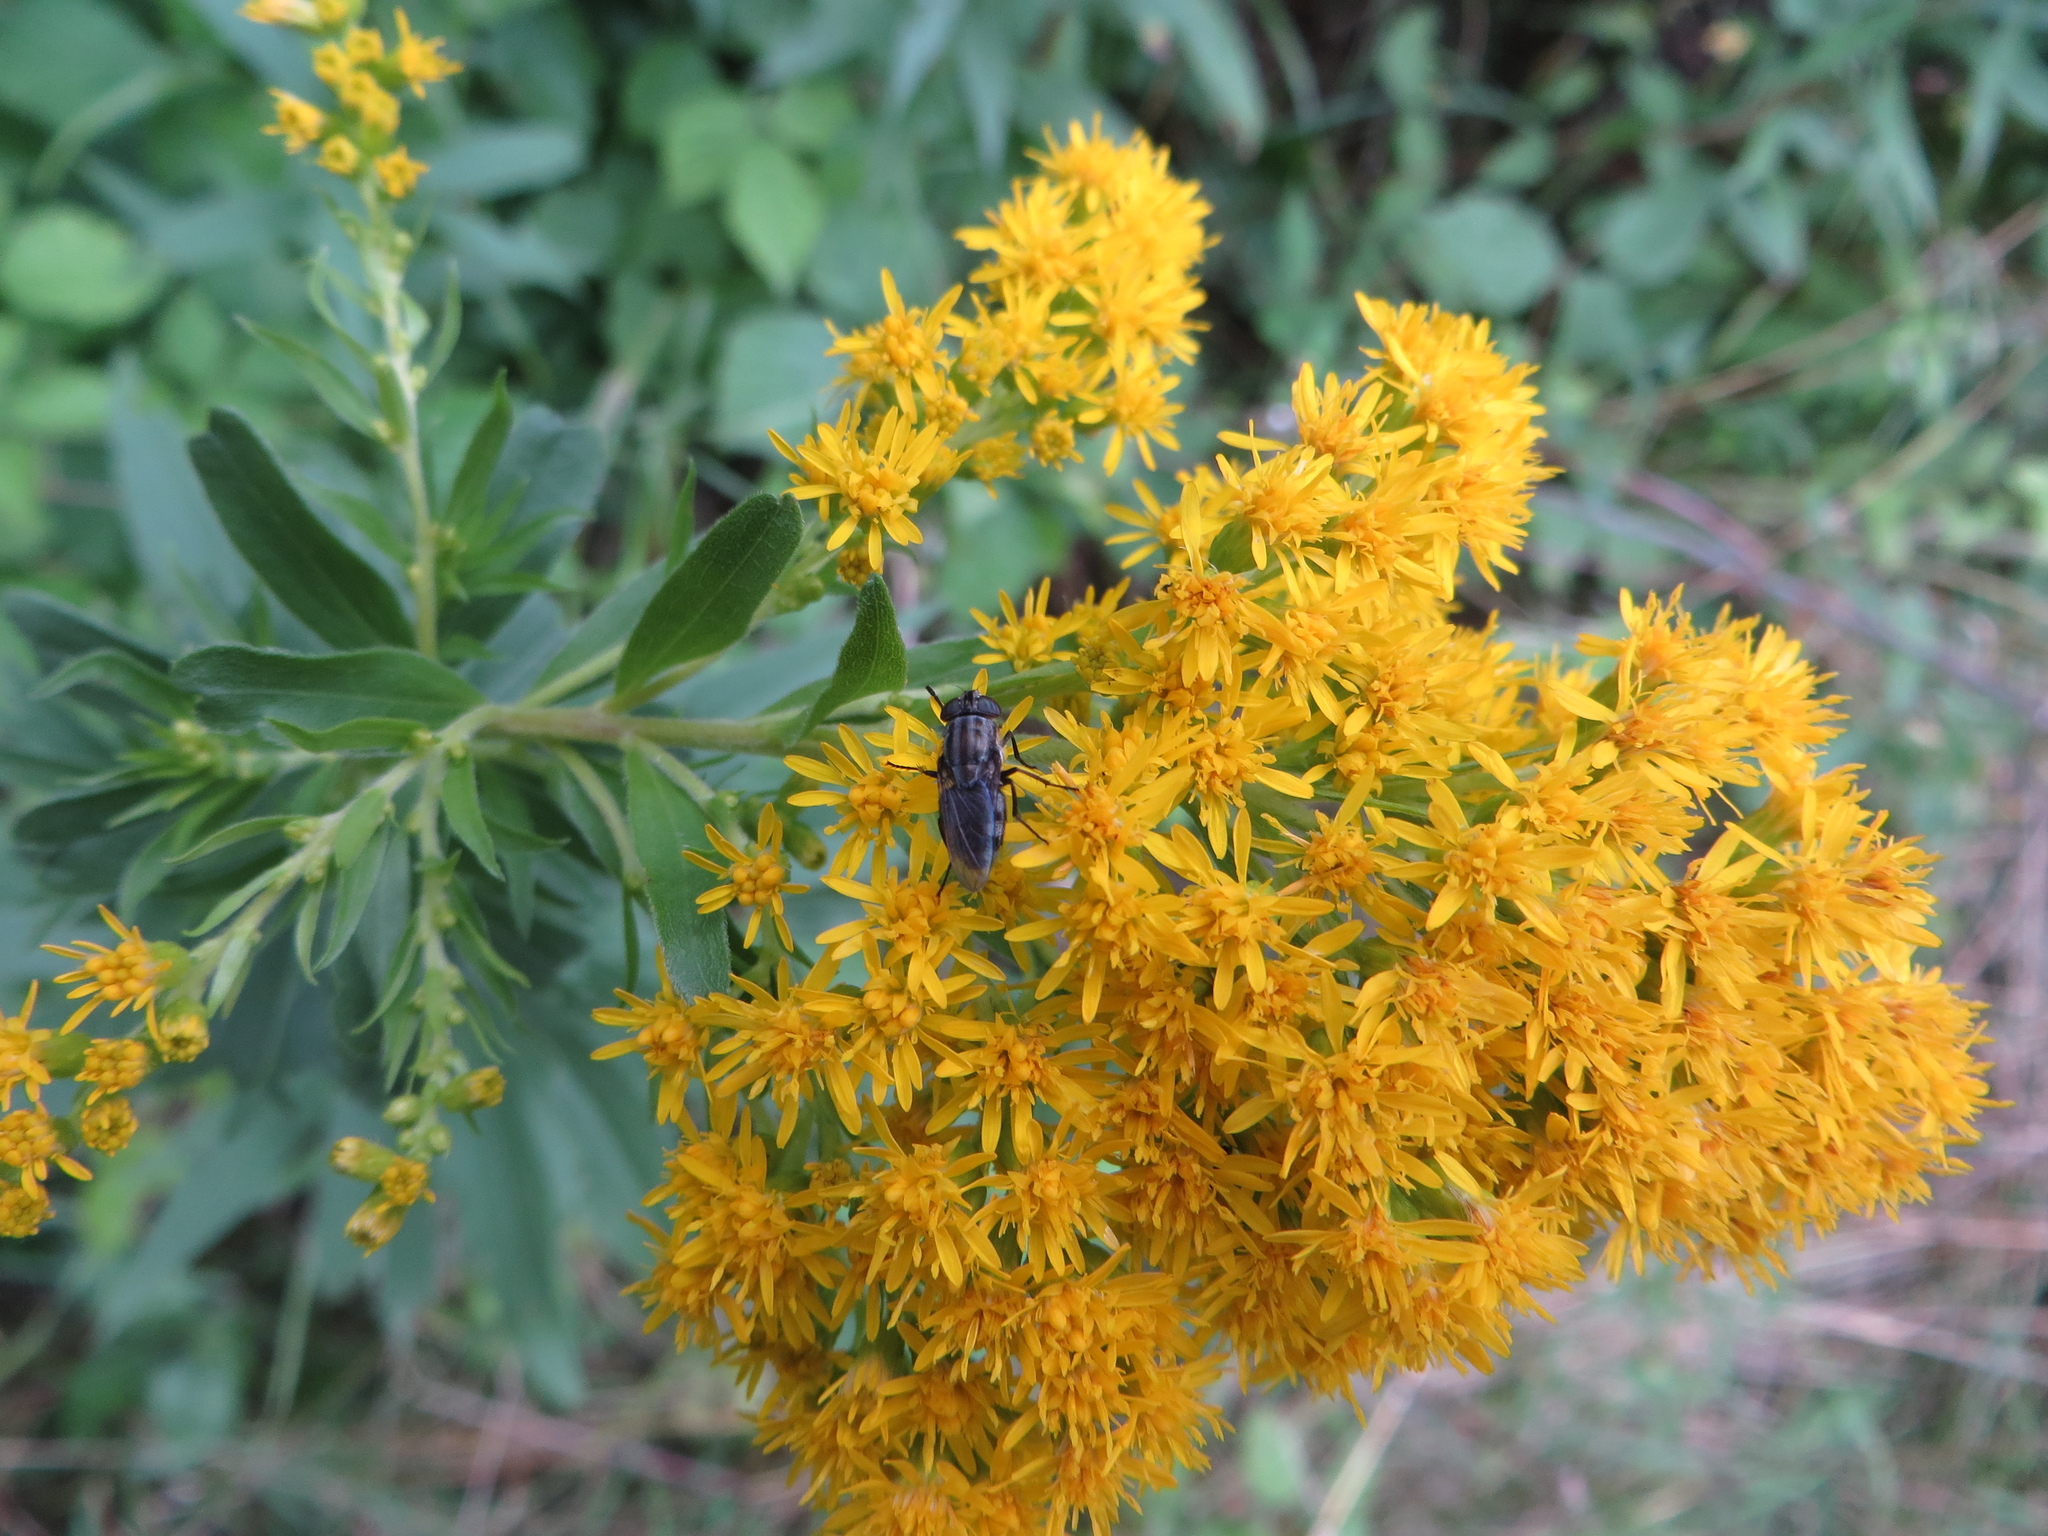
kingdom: Animalia
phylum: Arthropoda
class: Insecta
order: Diptera
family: Calliphoridae
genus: Stomorhina
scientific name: Stomorhina lunata
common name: Locust blowfly
